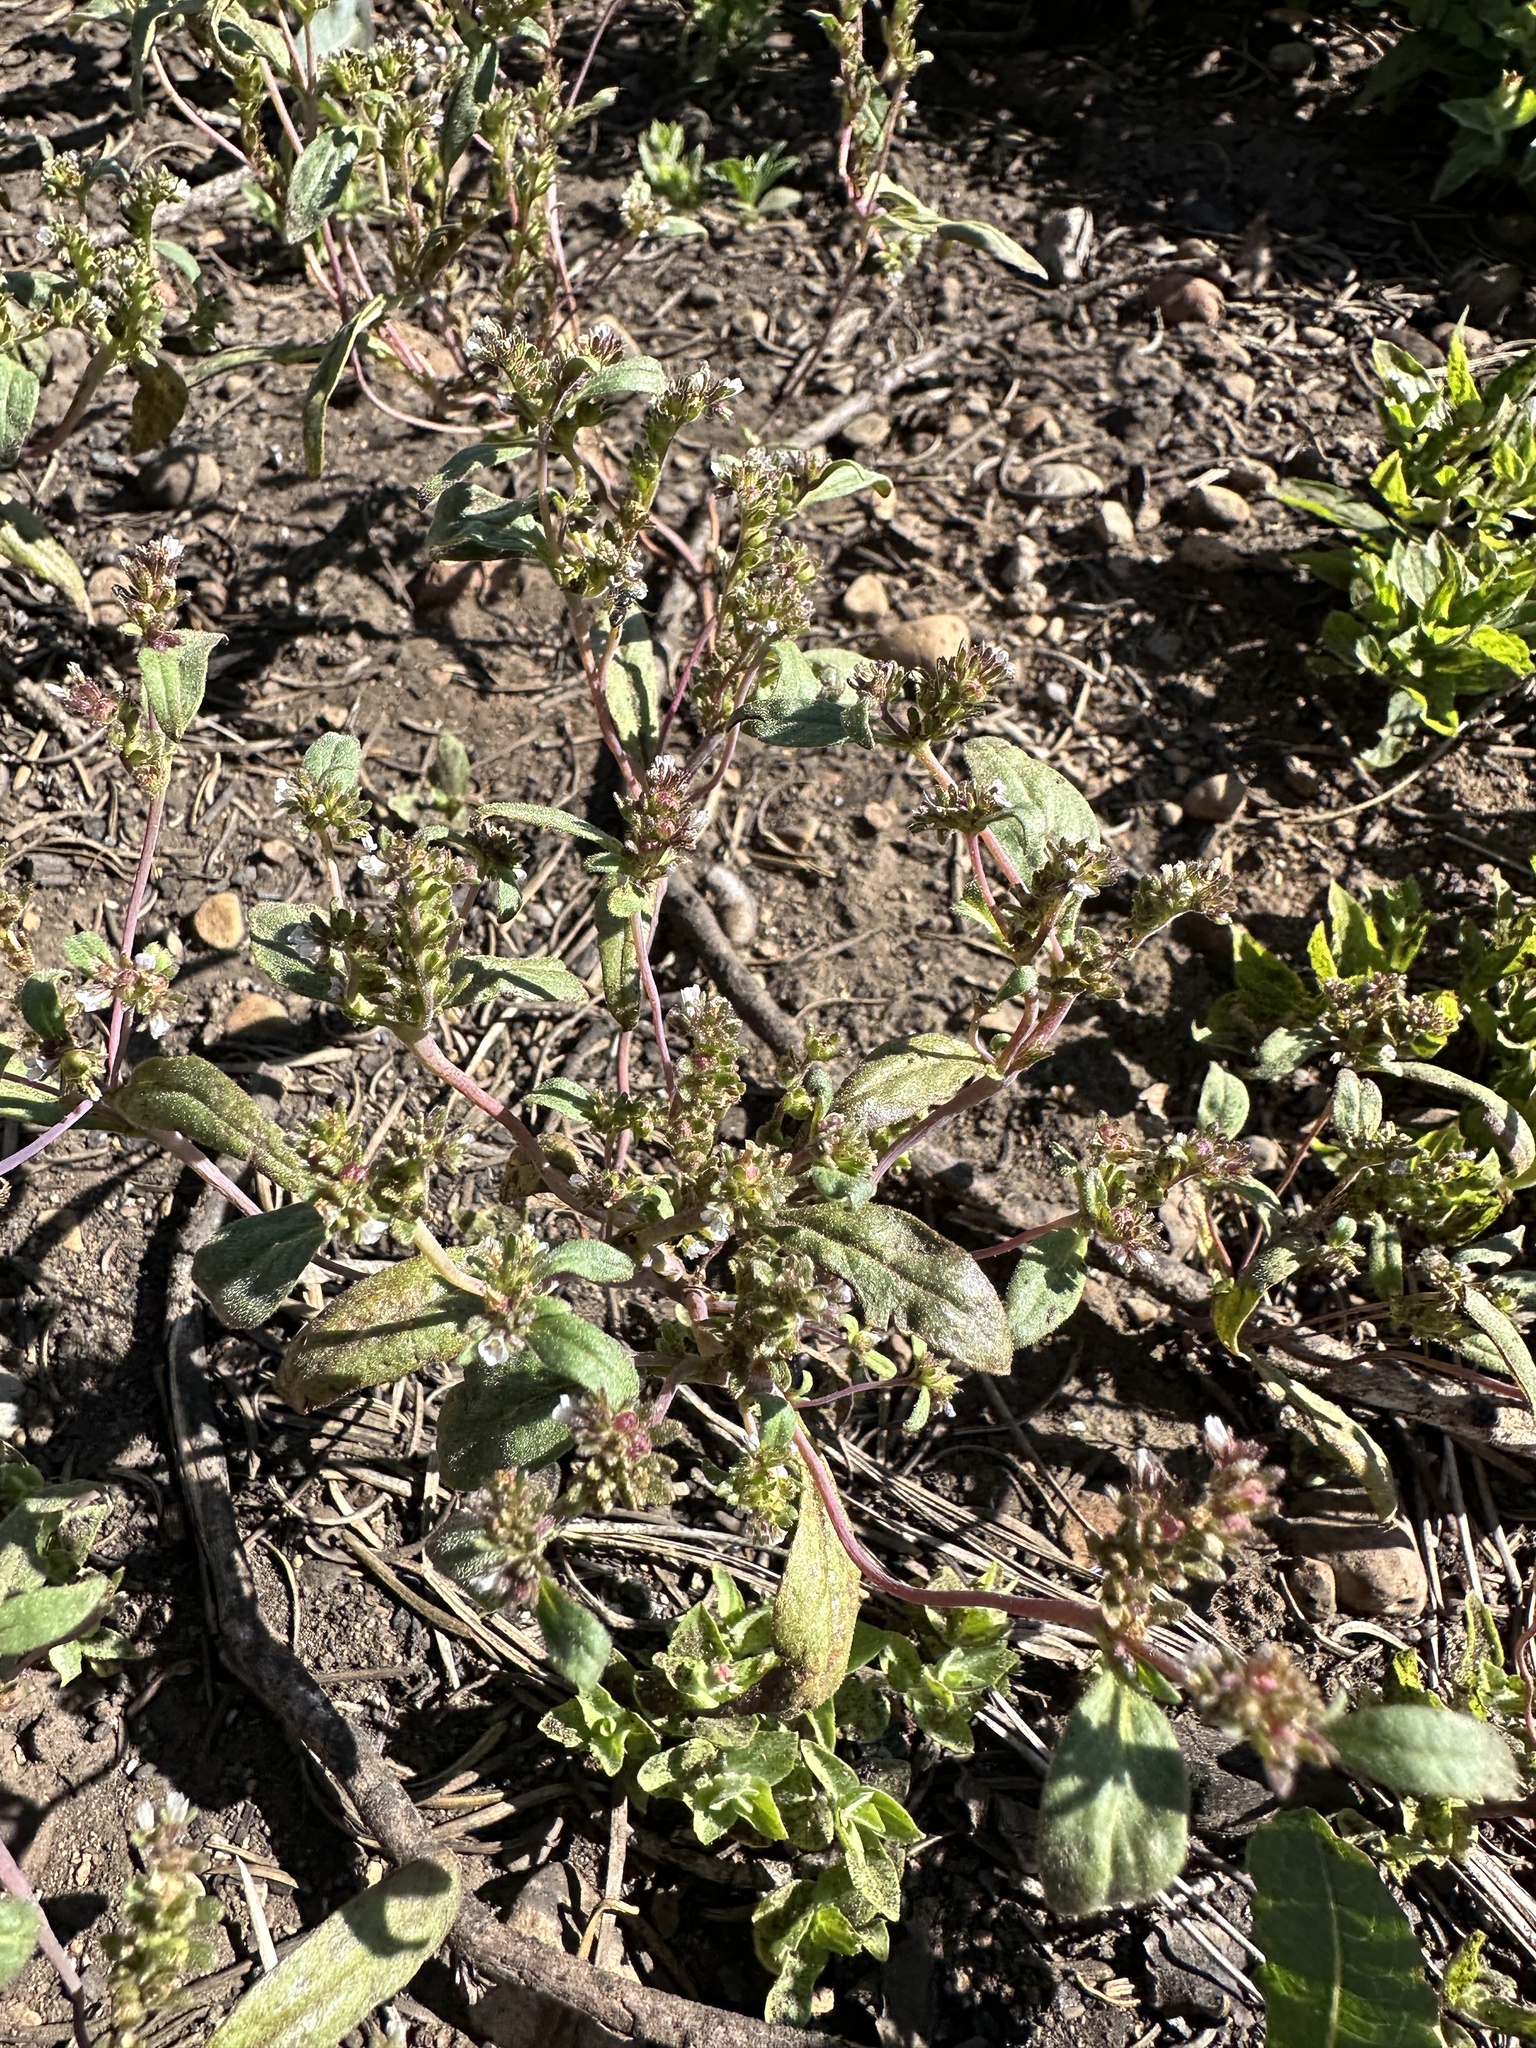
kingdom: Plantae
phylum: Tracheophyta
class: Magnoliopsida
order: Boraginales
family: Hydrophyllaceae
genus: Phacelia
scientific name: Phacelia racemosa
